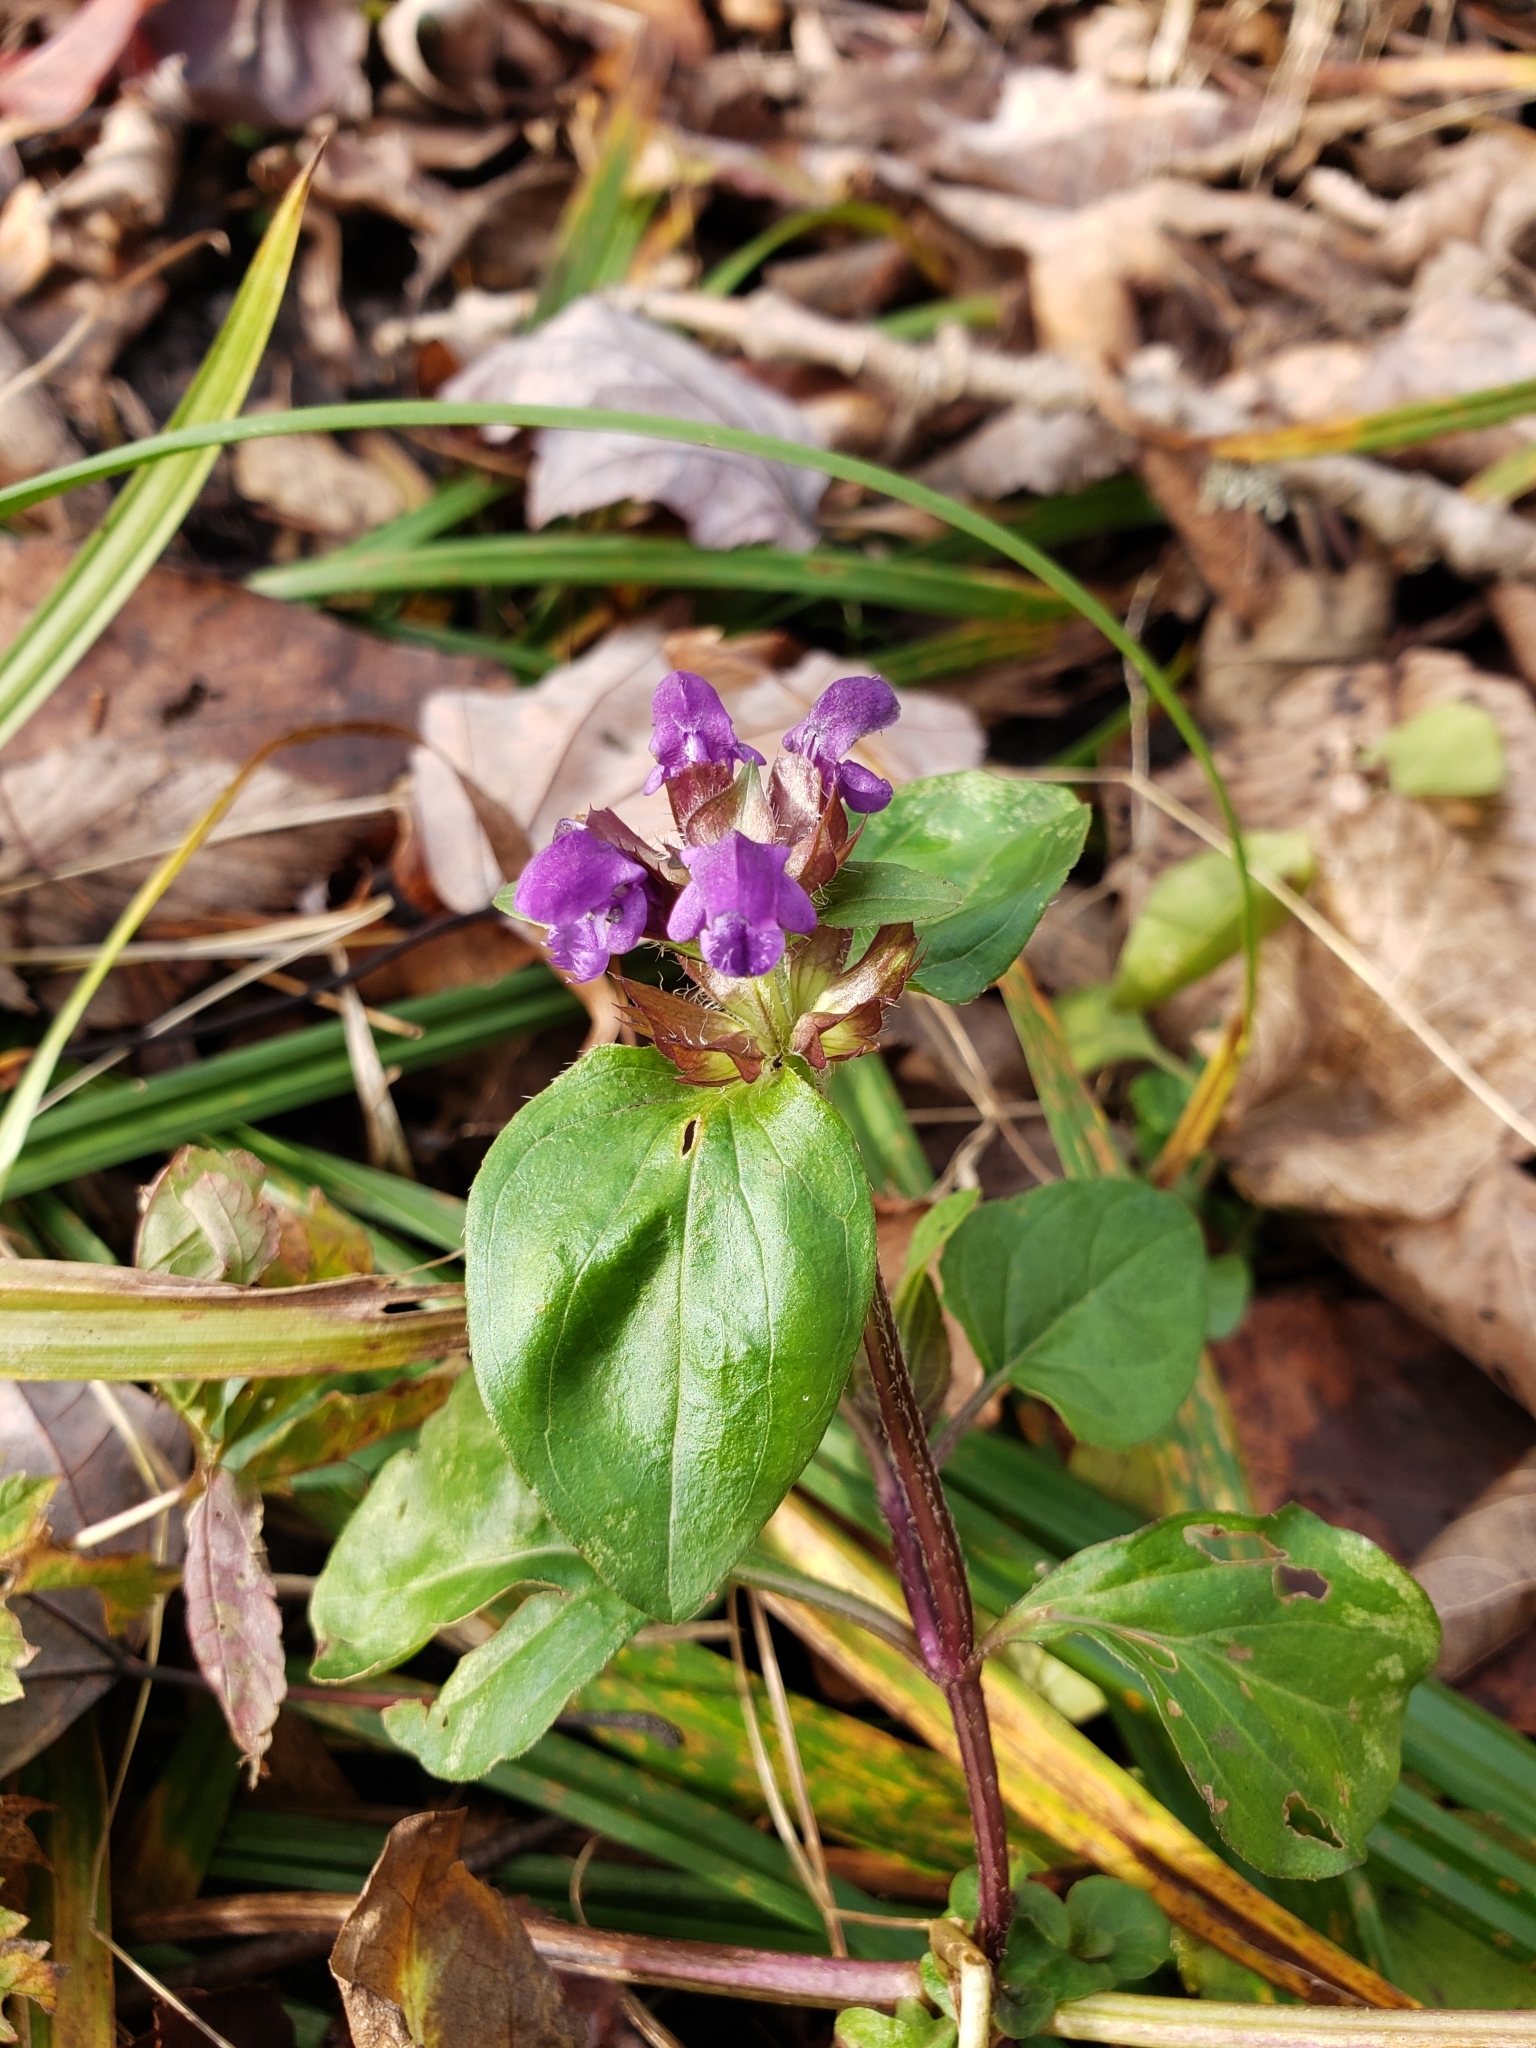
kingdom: Plantae
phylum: Tracheophyta
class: Magnoliopsida
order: Lamiales
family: Lamiaceae
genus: Prunella
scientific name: Prunella vulgaris
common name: Heal-all
